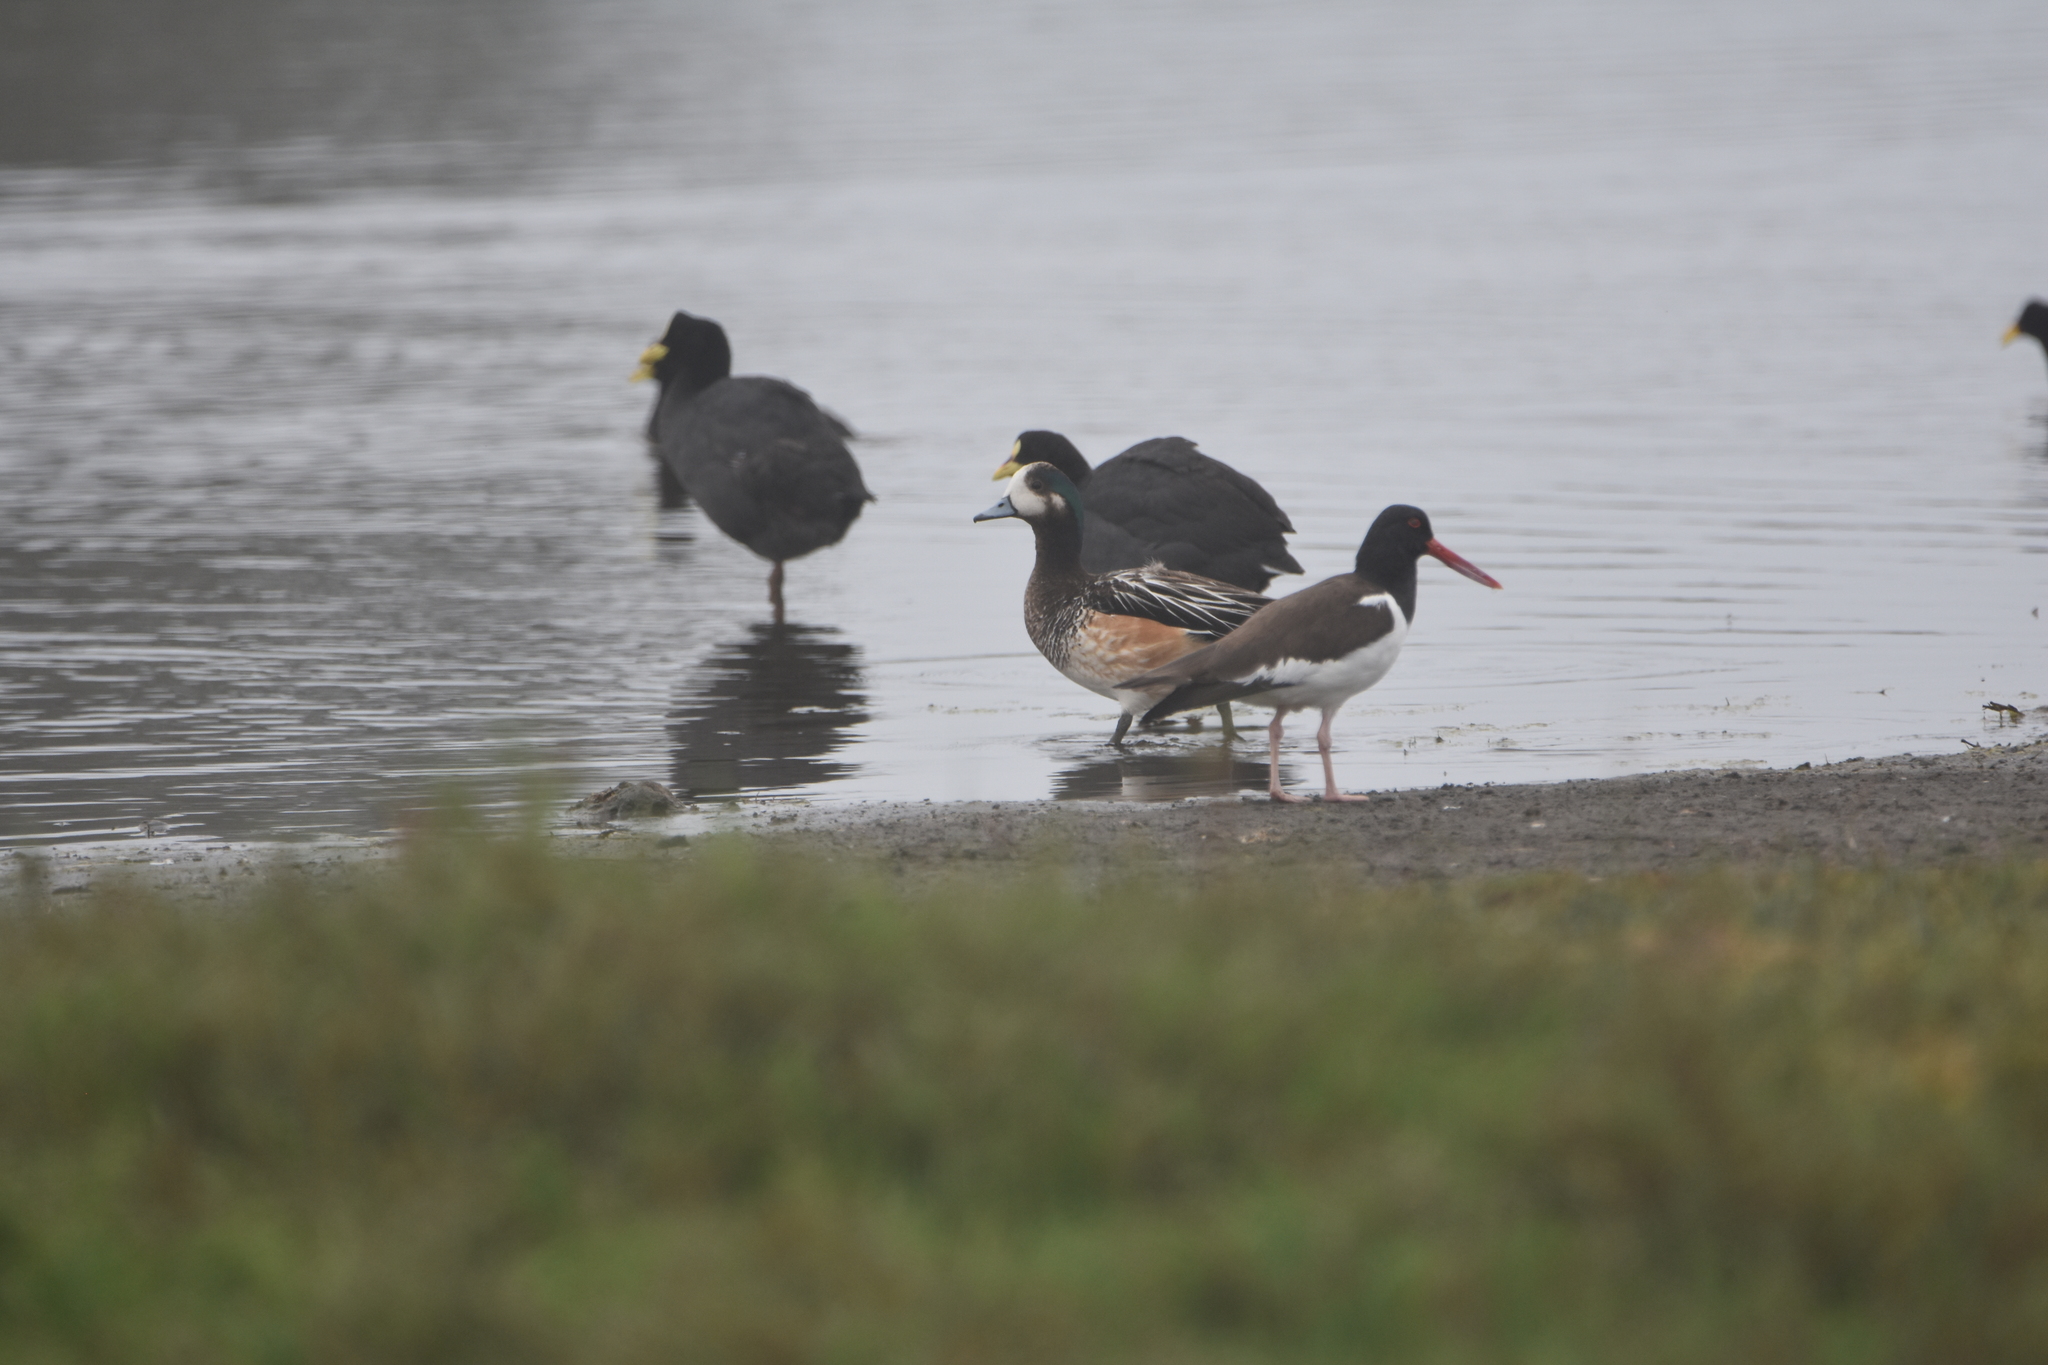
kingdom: Animalia
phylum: Chordata
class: Aves
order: Anseriformes
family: Anatidae
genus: Mareca
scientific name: Mareca sibilatrix
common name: Chiloe wigeon
